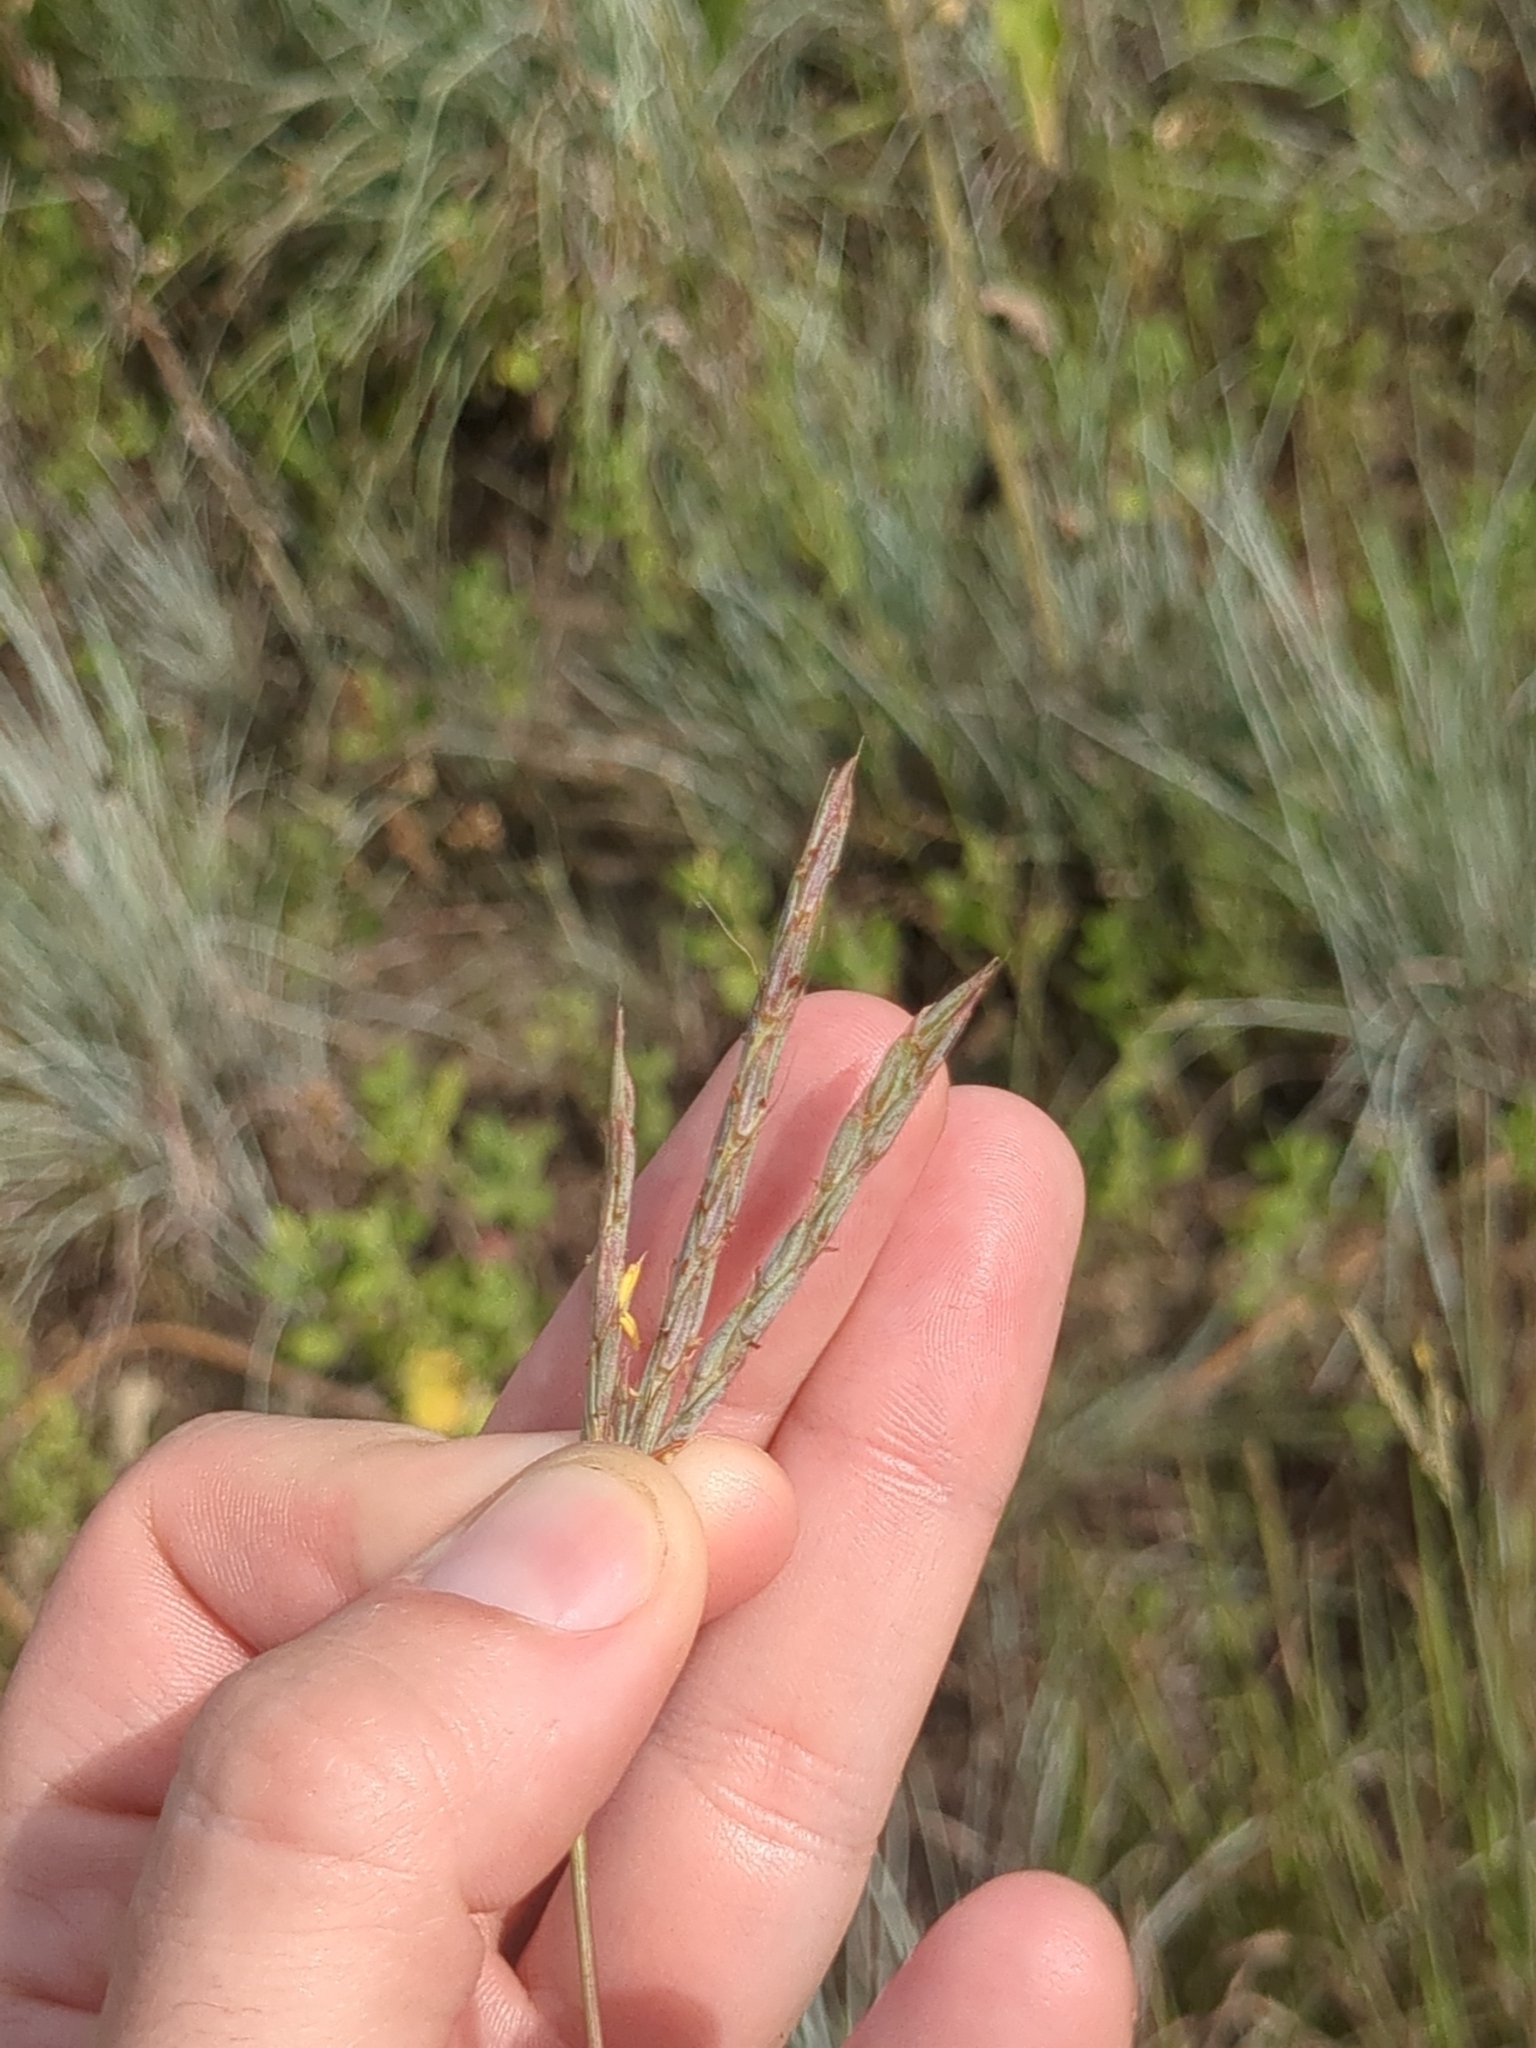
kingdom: Plantae
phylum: Tracheophyta
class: Liliopsida
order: Poales
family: Poaceae
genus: Andropogon
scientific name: Andropogon gerardi
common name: Big bluestem
